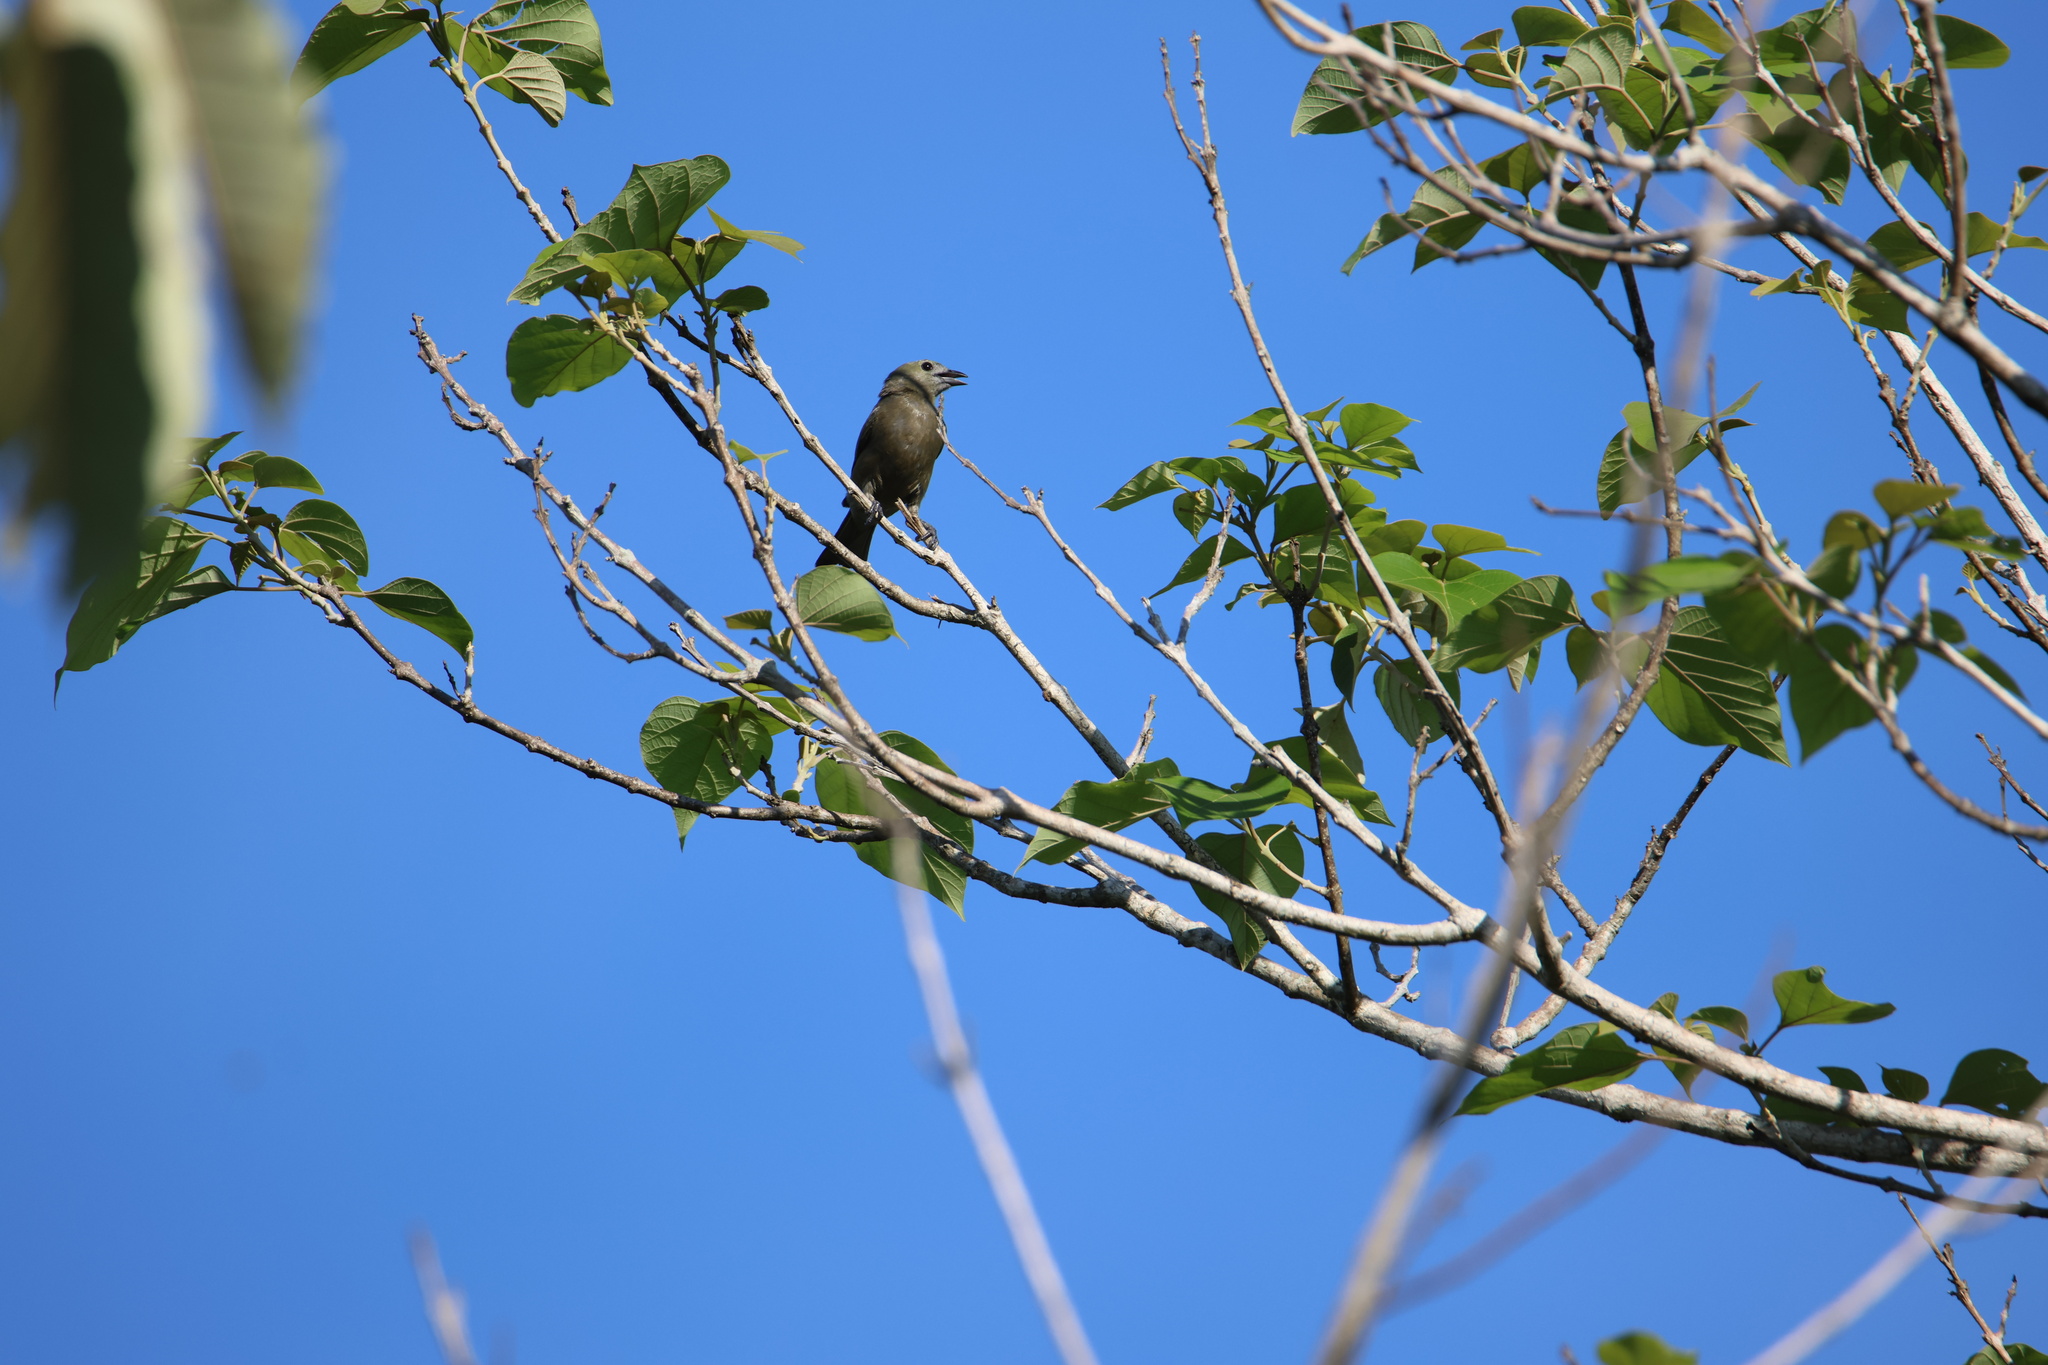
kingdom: Animalia
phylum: Chordata
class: Aves
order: Passeriformes
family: Thraupidae
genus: Thraupis
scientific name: Thraupis palmarum
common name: Palm tanager
